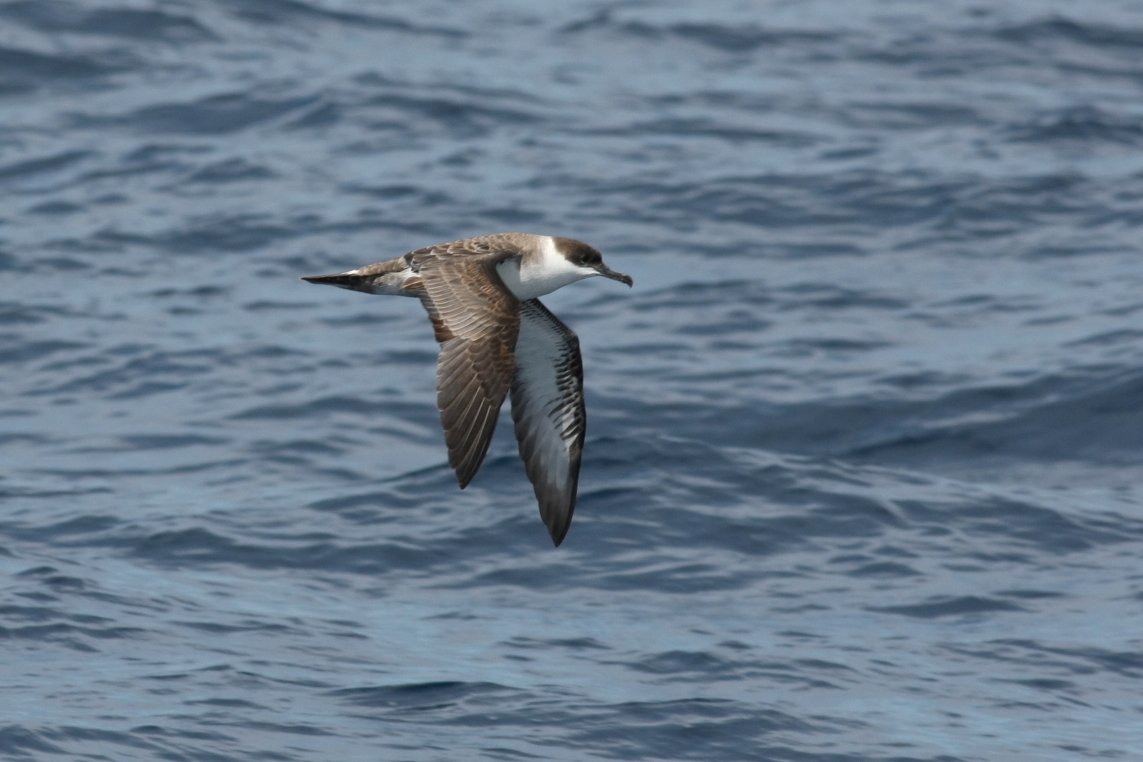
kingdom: Animalia
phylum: Chordata
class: Aves
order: Procellariiformes
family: Procellariidae
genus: Puffinus
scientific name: Puffinus gravis
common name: Great shearwater
